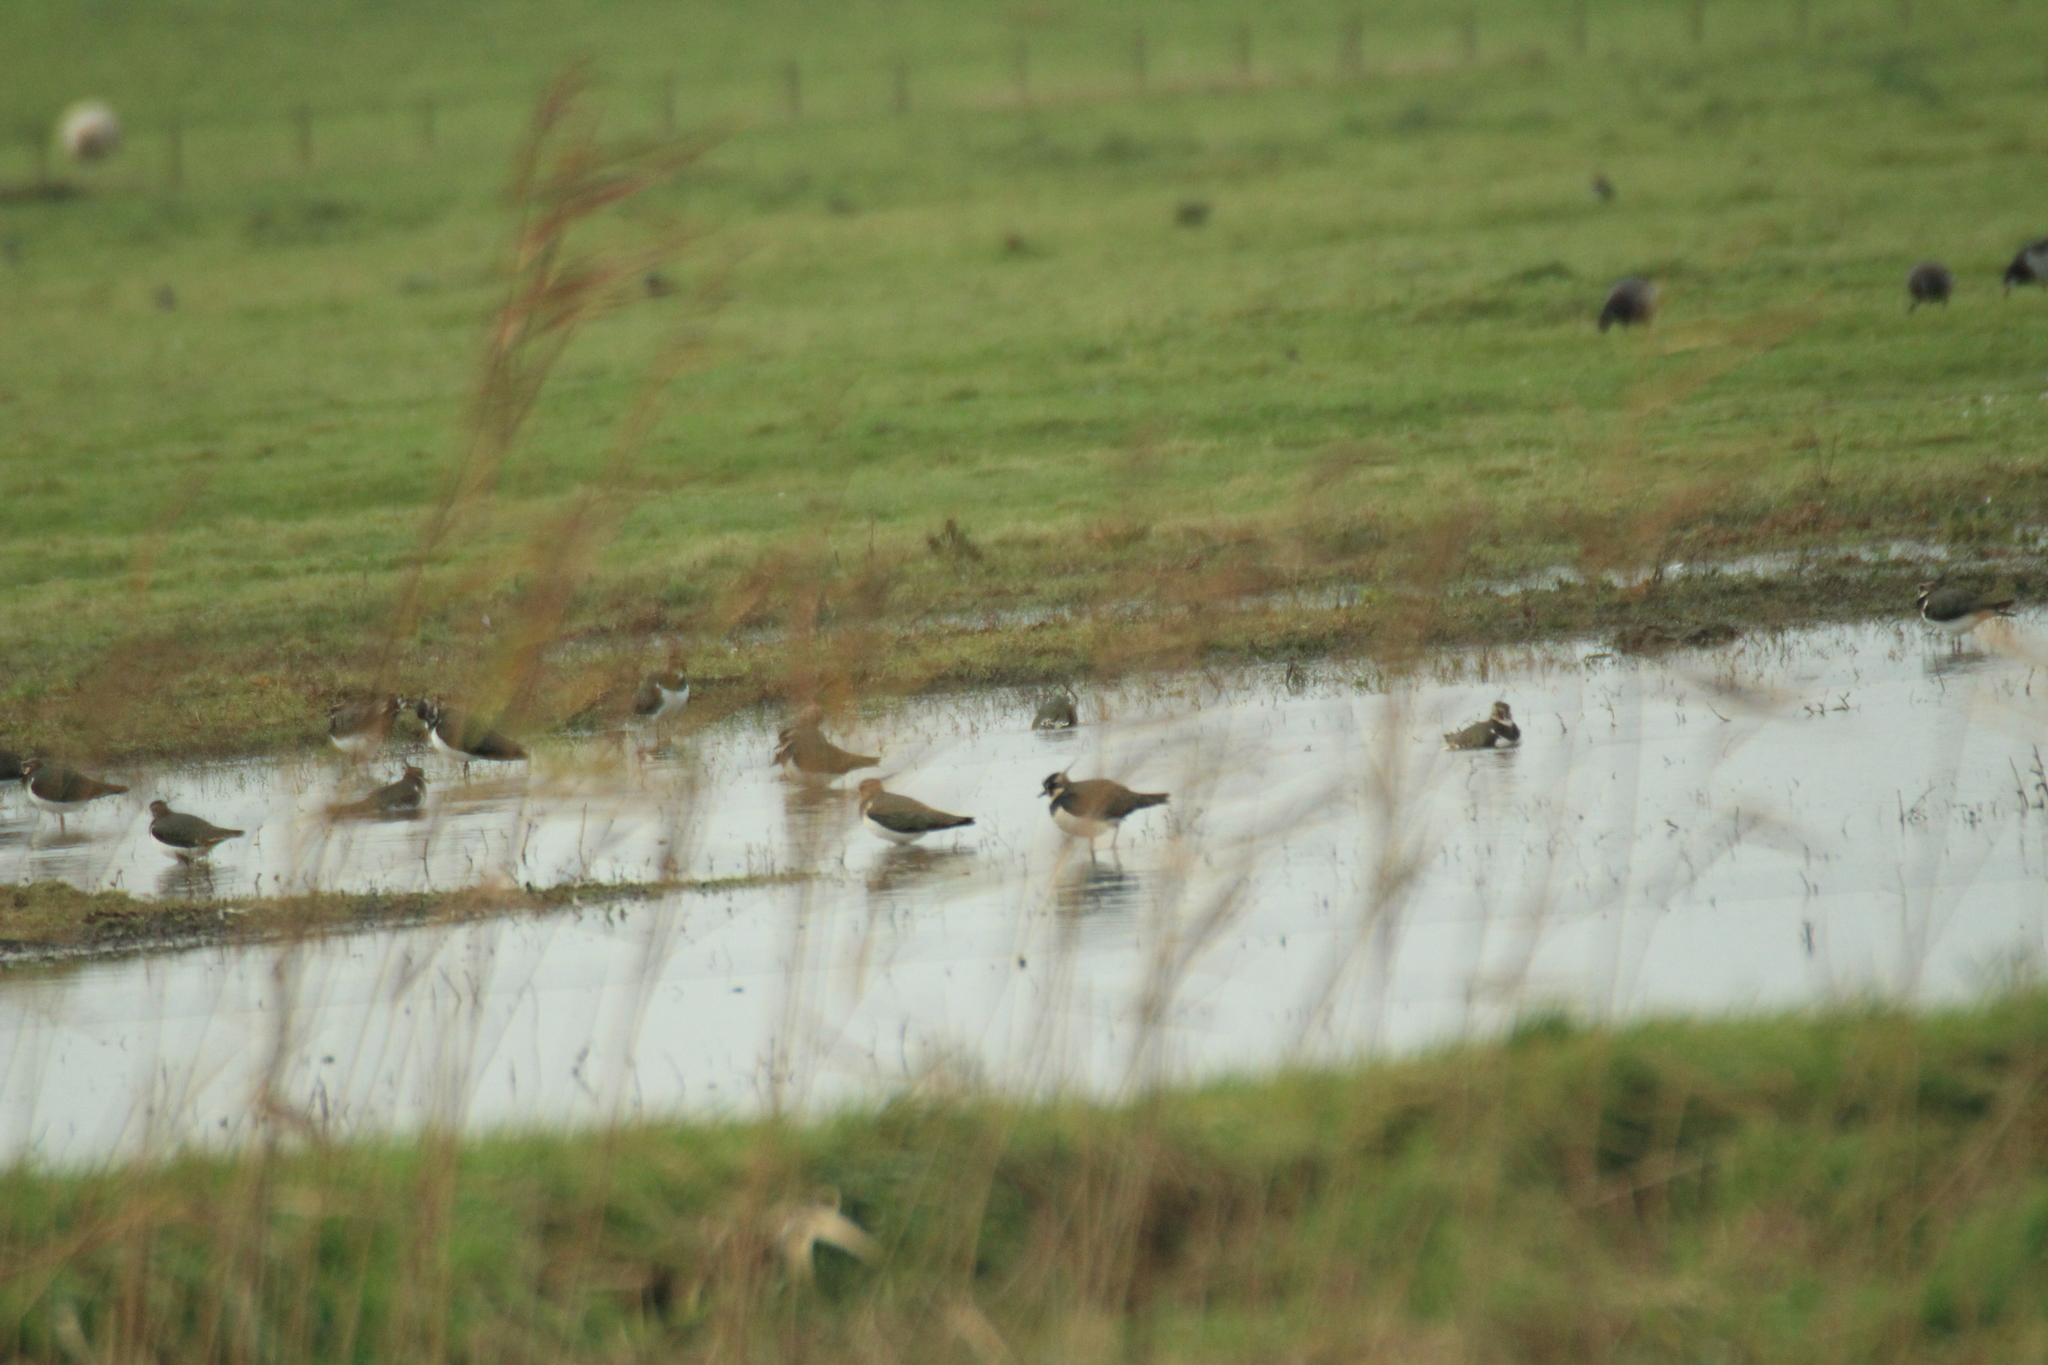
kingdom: Animalia
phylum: Chordata
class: Aves
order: Charadriiformes
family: Charadriidae
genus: Vanellus
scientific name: Vanellus vanellus
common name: Northern lapwing
